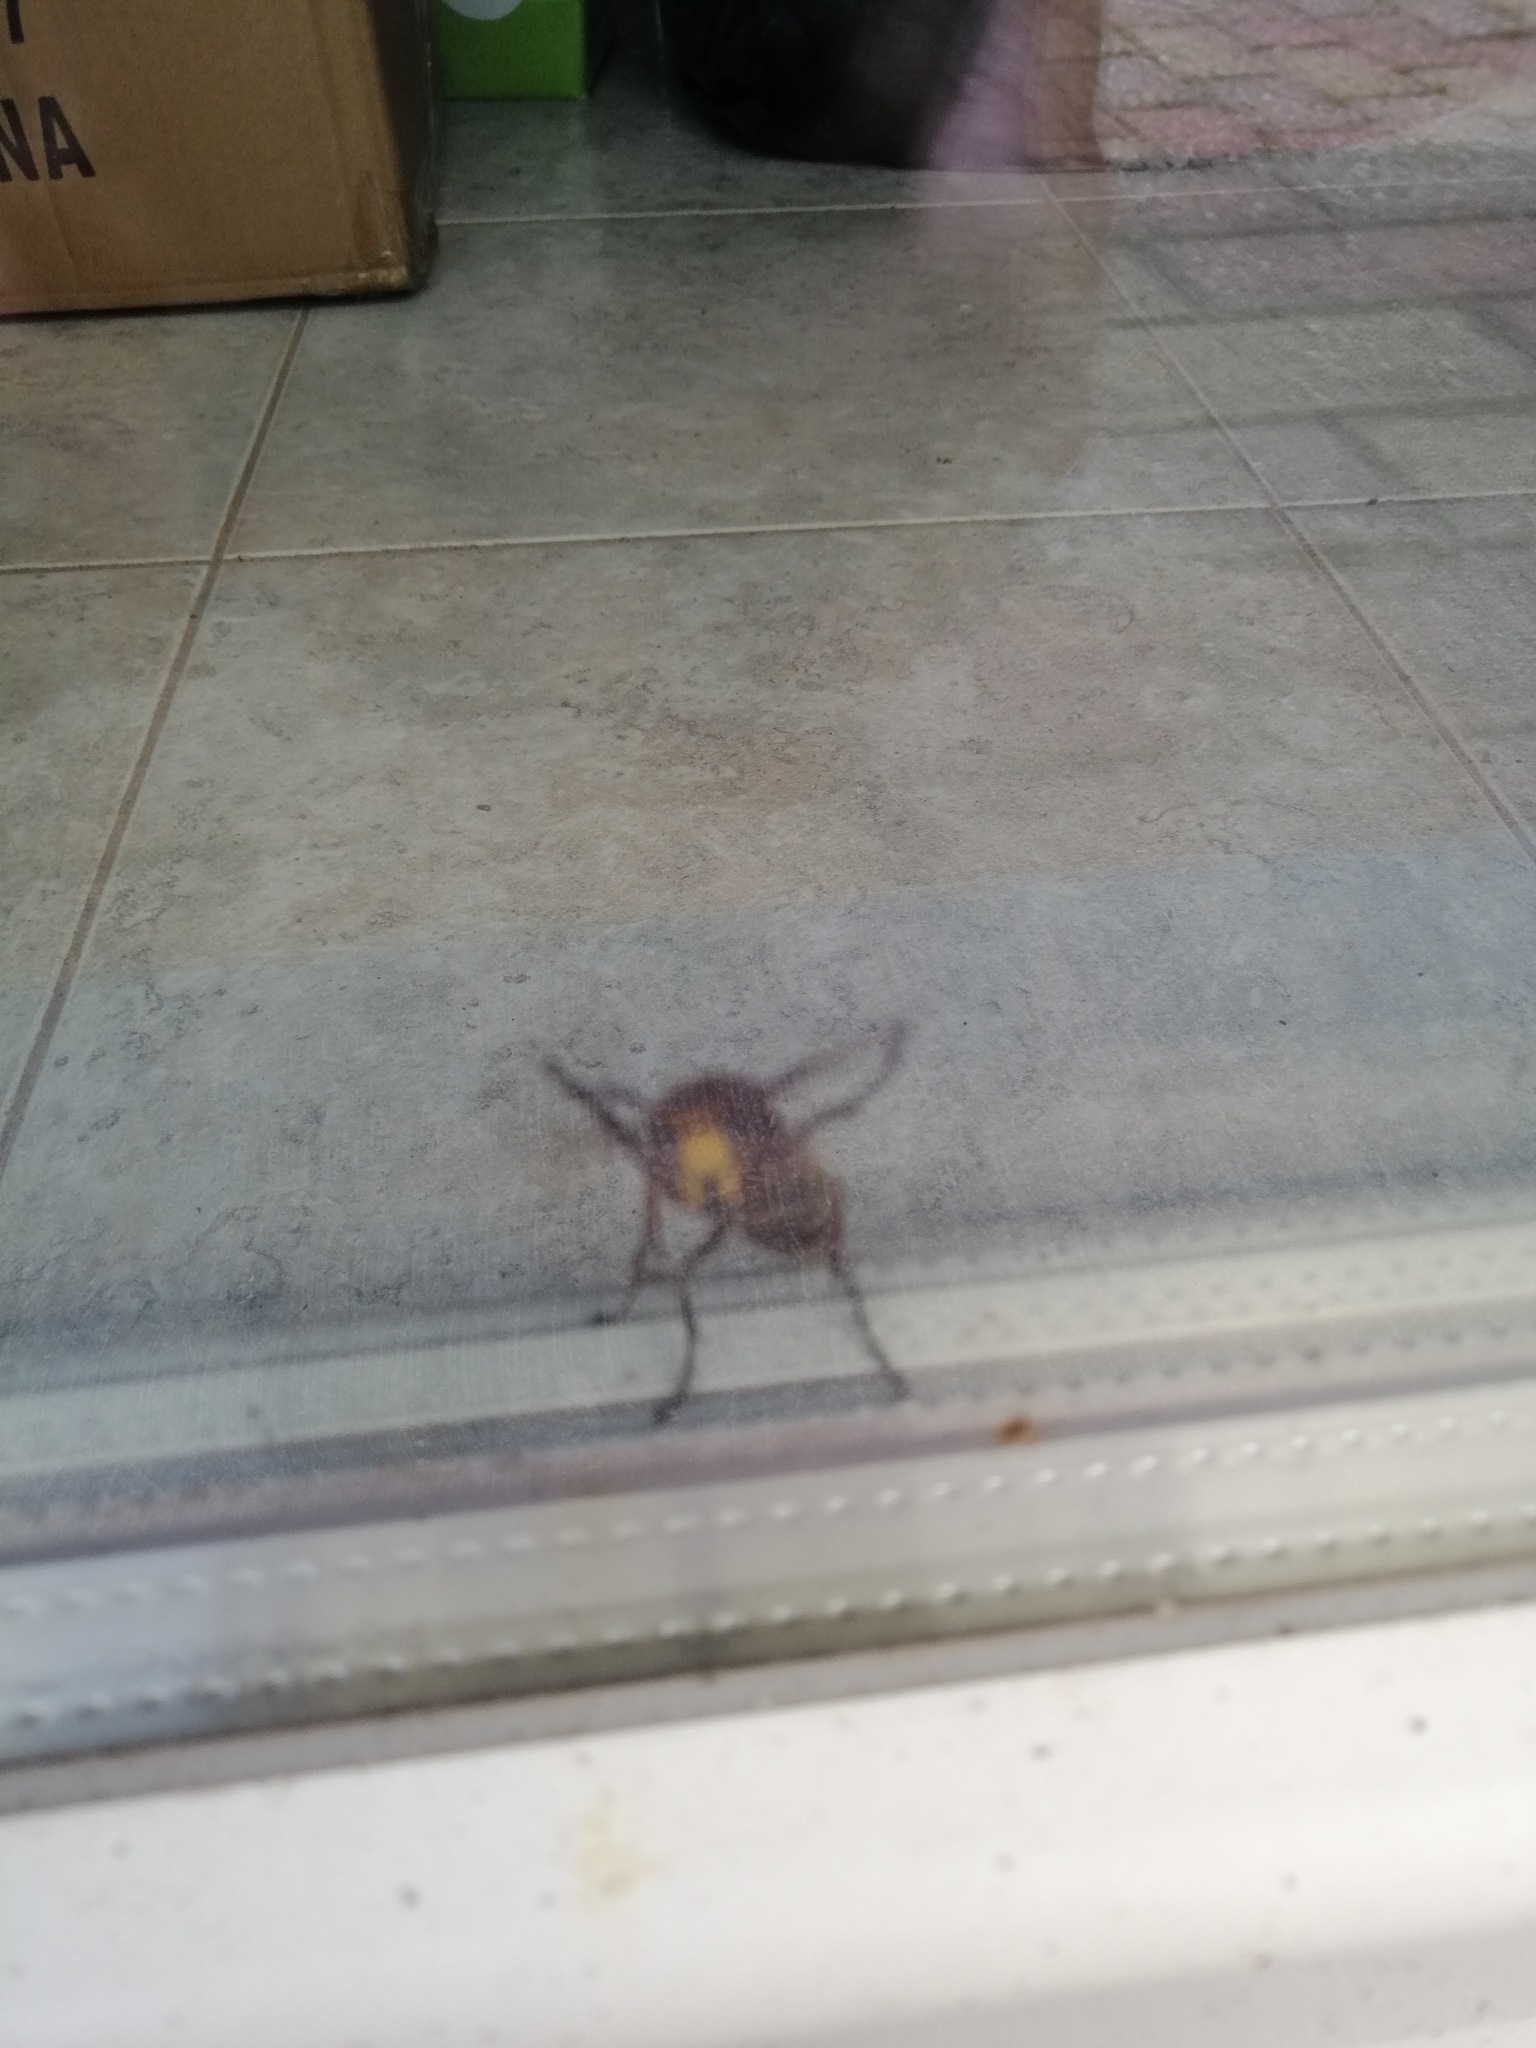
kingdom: Animalia
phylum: Arthropoda
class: Insecta
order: Hymenoptera
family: Vespidae
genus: Vespa
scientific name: Vespa crabro
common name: Hornet
